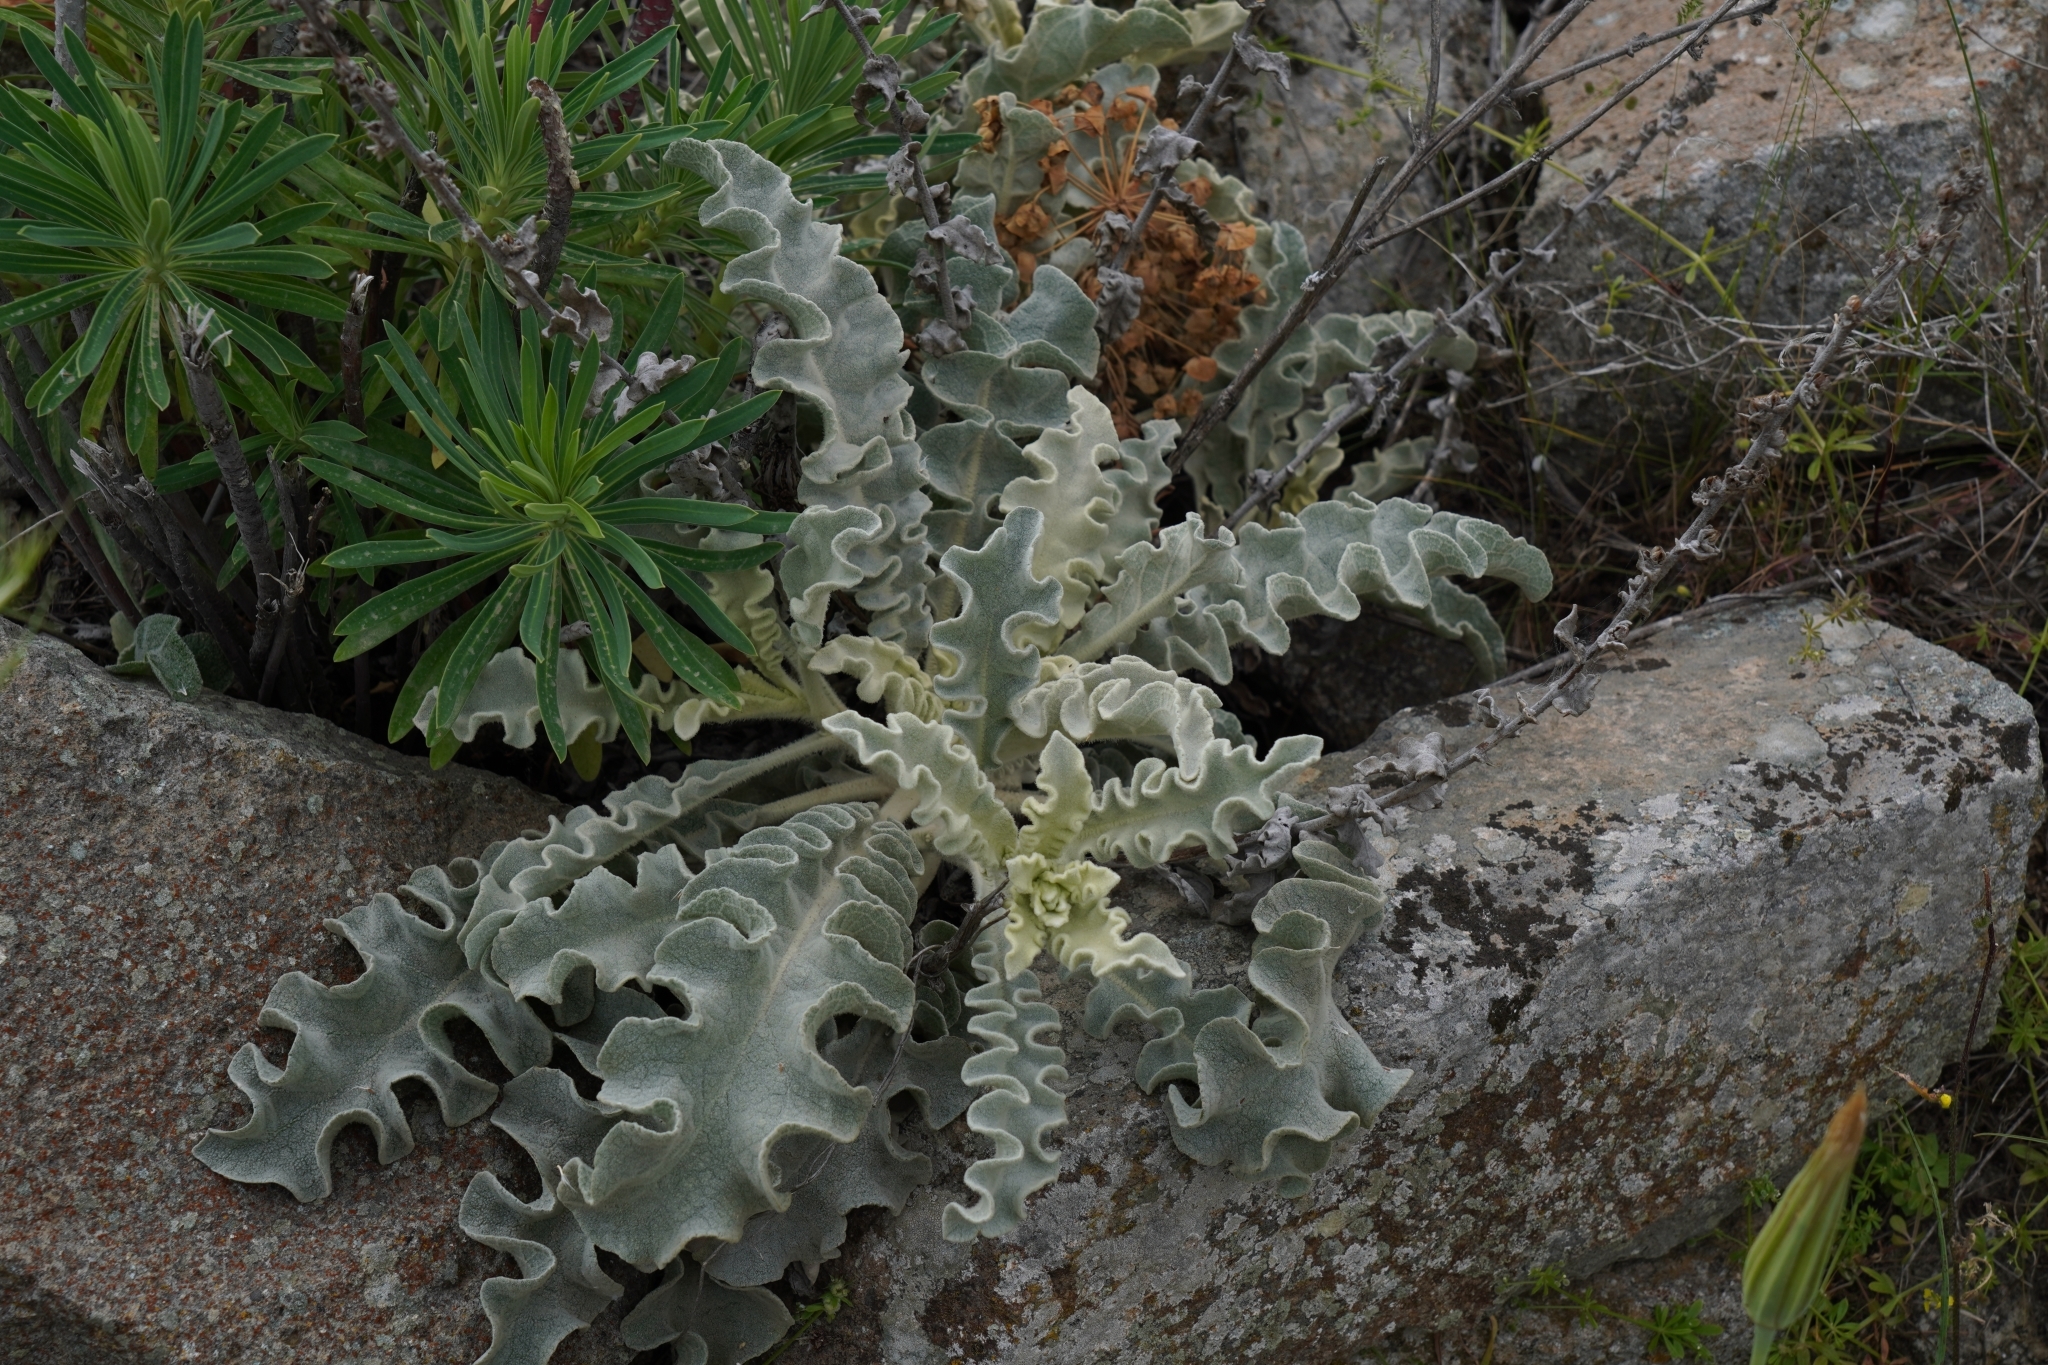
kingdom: Plantae
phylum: Tracheophyta
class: Magnoliopsida
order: Lamiales
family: Scrophulariaceae
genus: Verbascum
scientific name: Verbascum sinuatum
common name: Wavyleaf mullein
